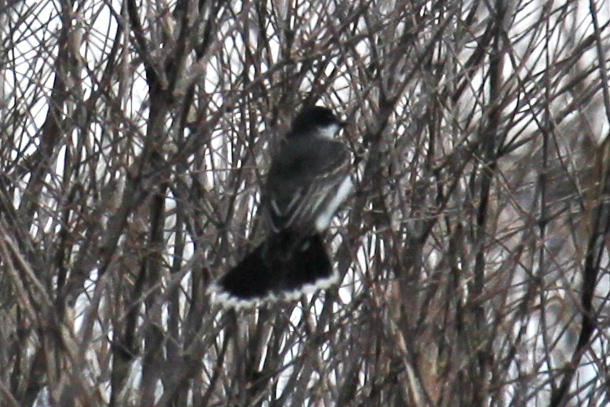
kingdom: Animalia
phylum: Chordata
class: Aves
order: Passeriformes
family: Tyrannidae
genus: Tyrannus
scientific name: Tyrannus tyrannus
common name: Eastern kingbird
